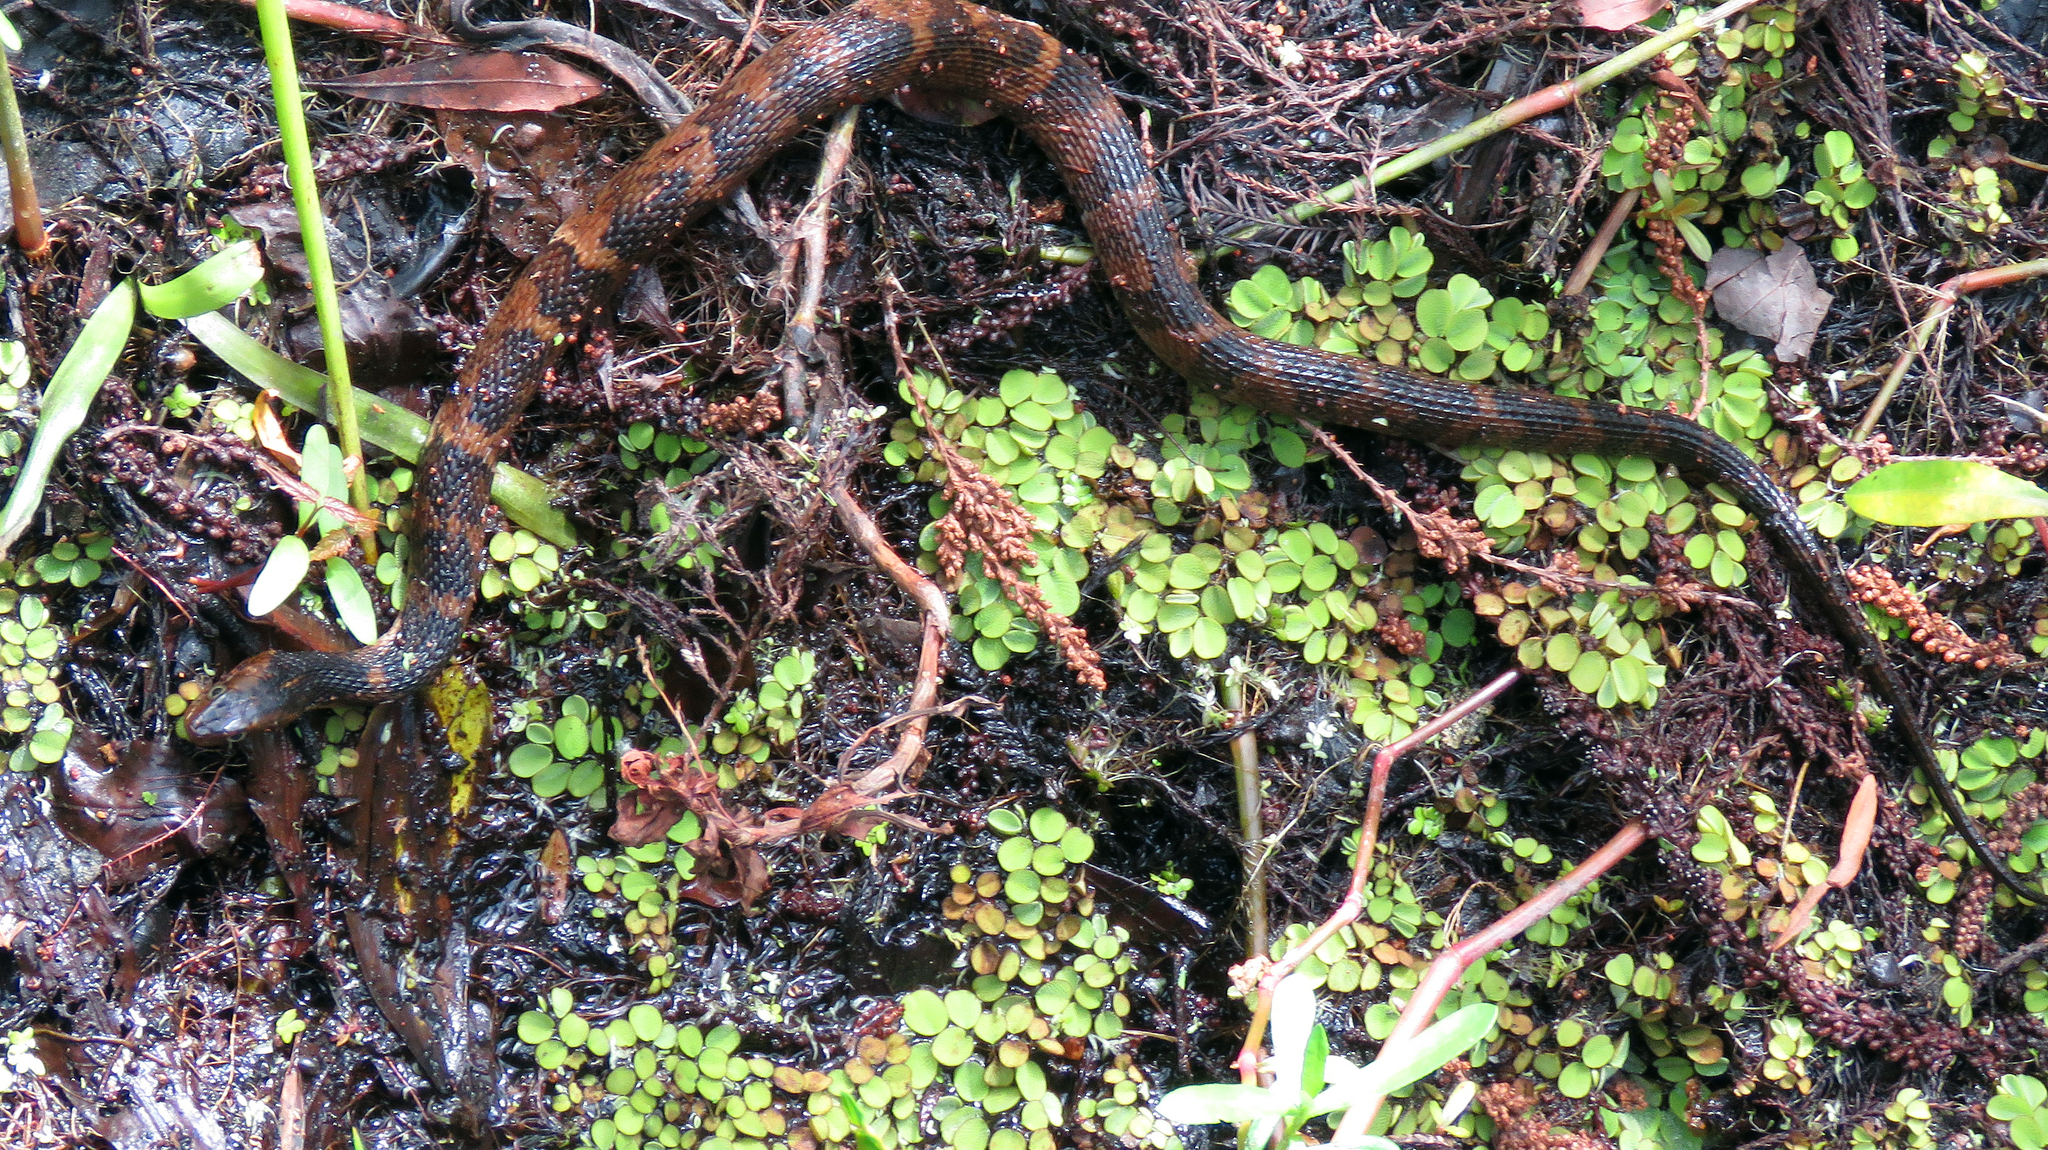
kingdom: Animalia
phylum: Chordata
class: Squamata
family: Colubridae
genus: Nerodia
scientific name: Nerodia fasciata
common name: Southern water snake
